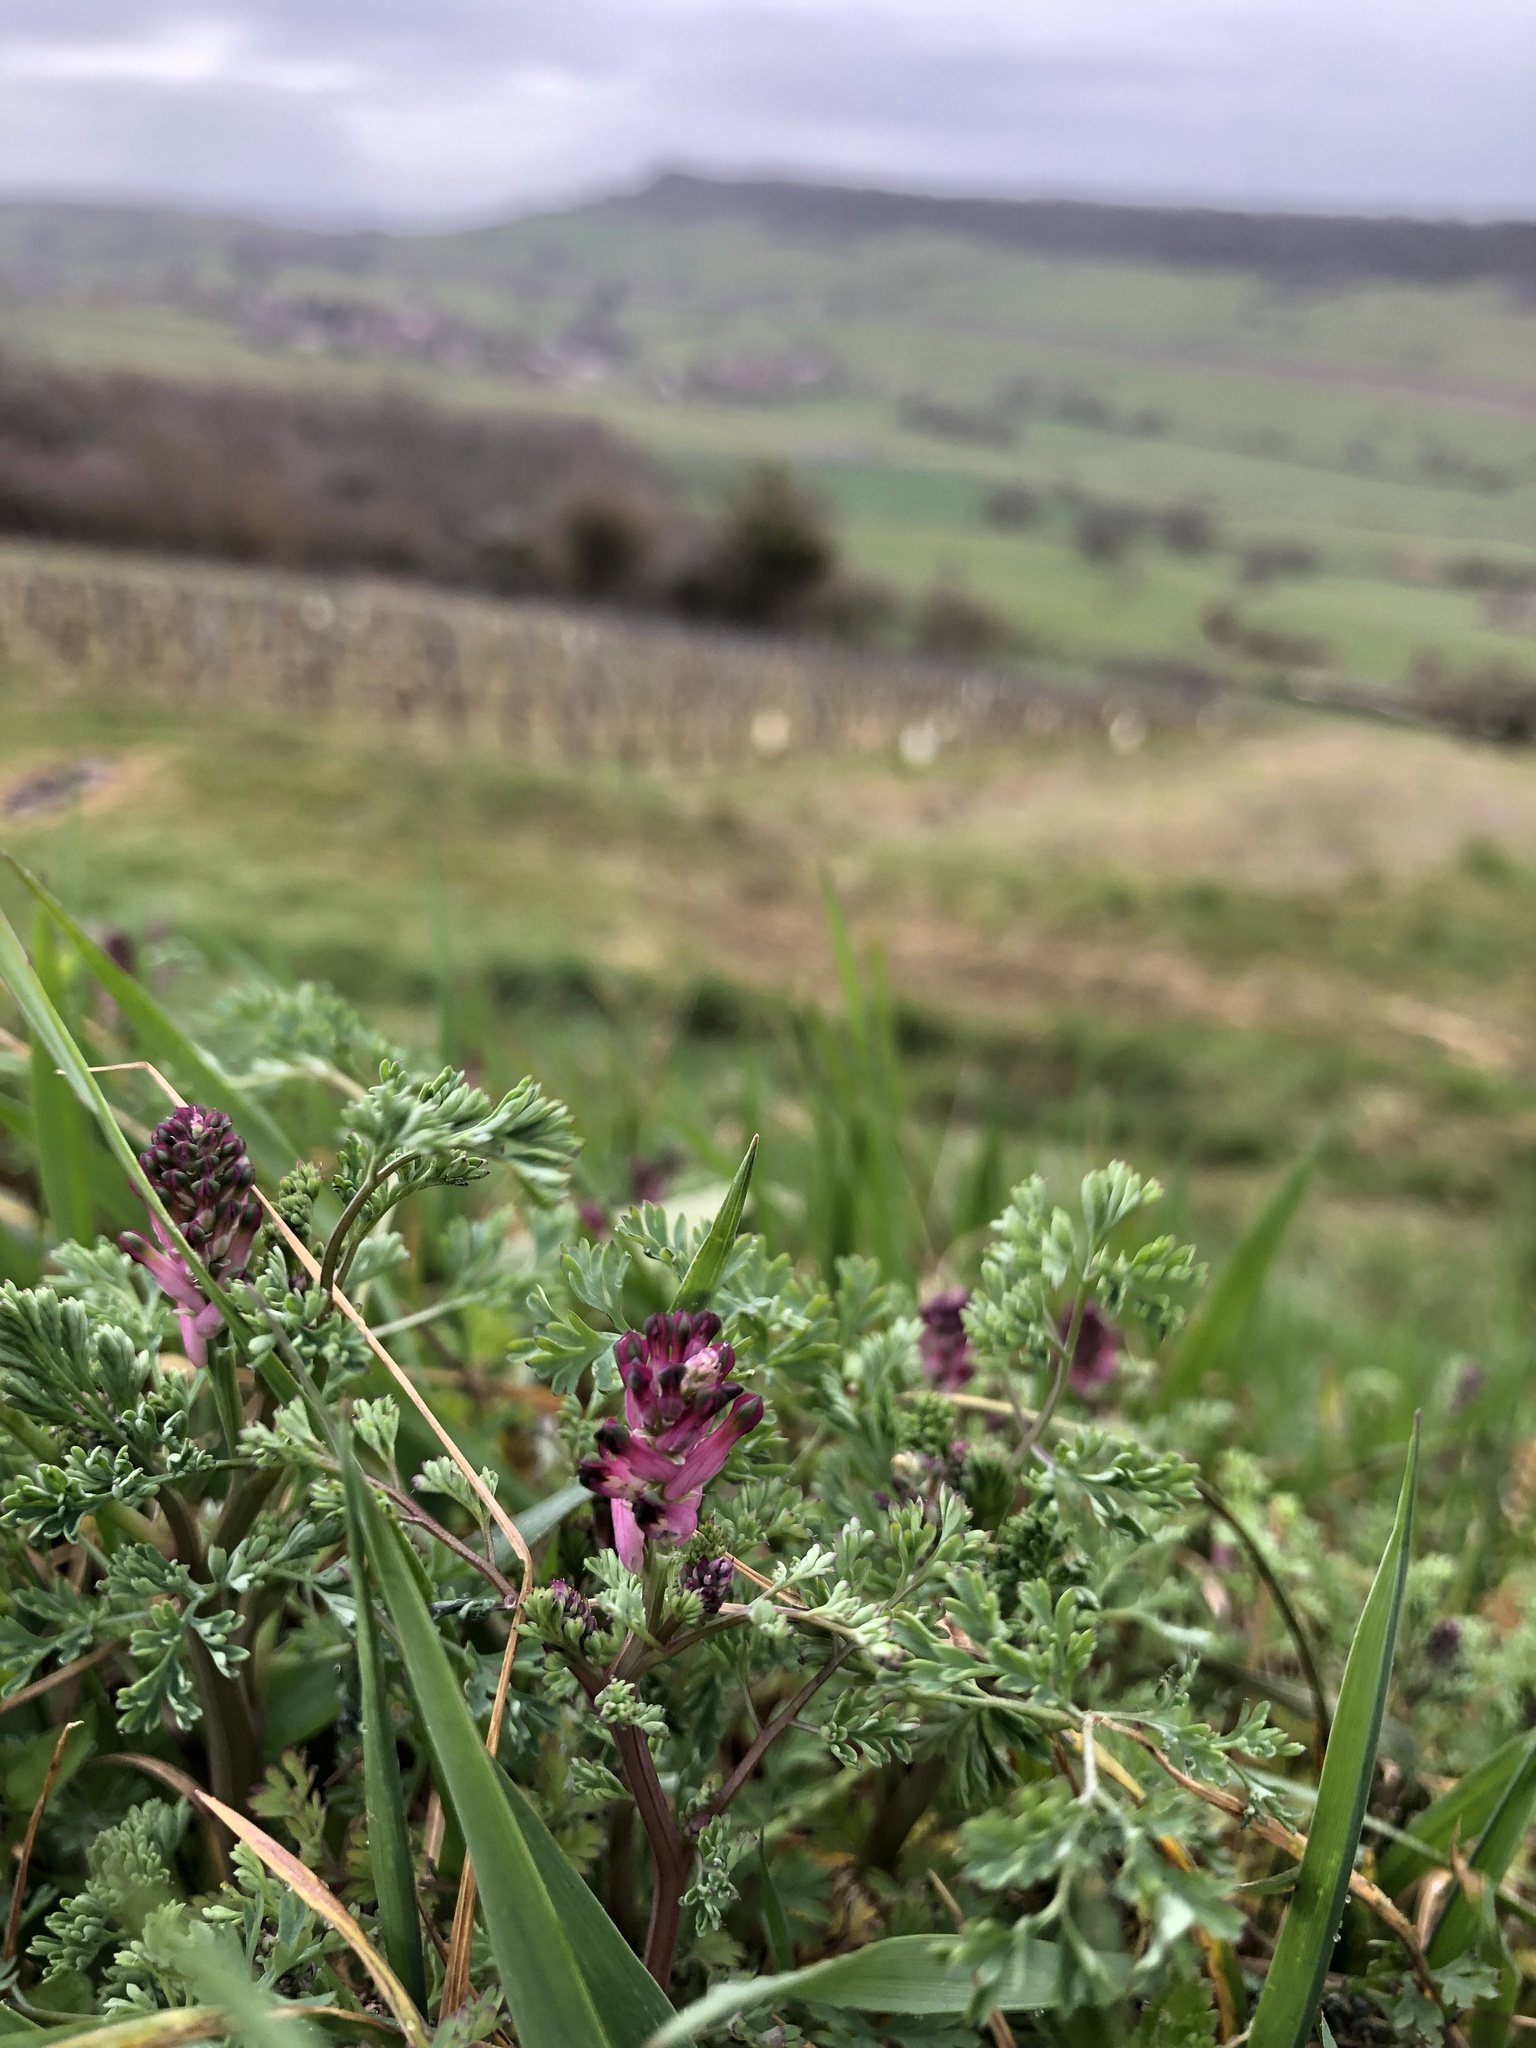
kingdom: Plantae
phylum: Tracheophyta
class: Magnoliopsida
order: Ranunculales
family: Papaveraceae
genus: Fumaria
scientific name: Fumaria officinalis
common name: Common fumitory
